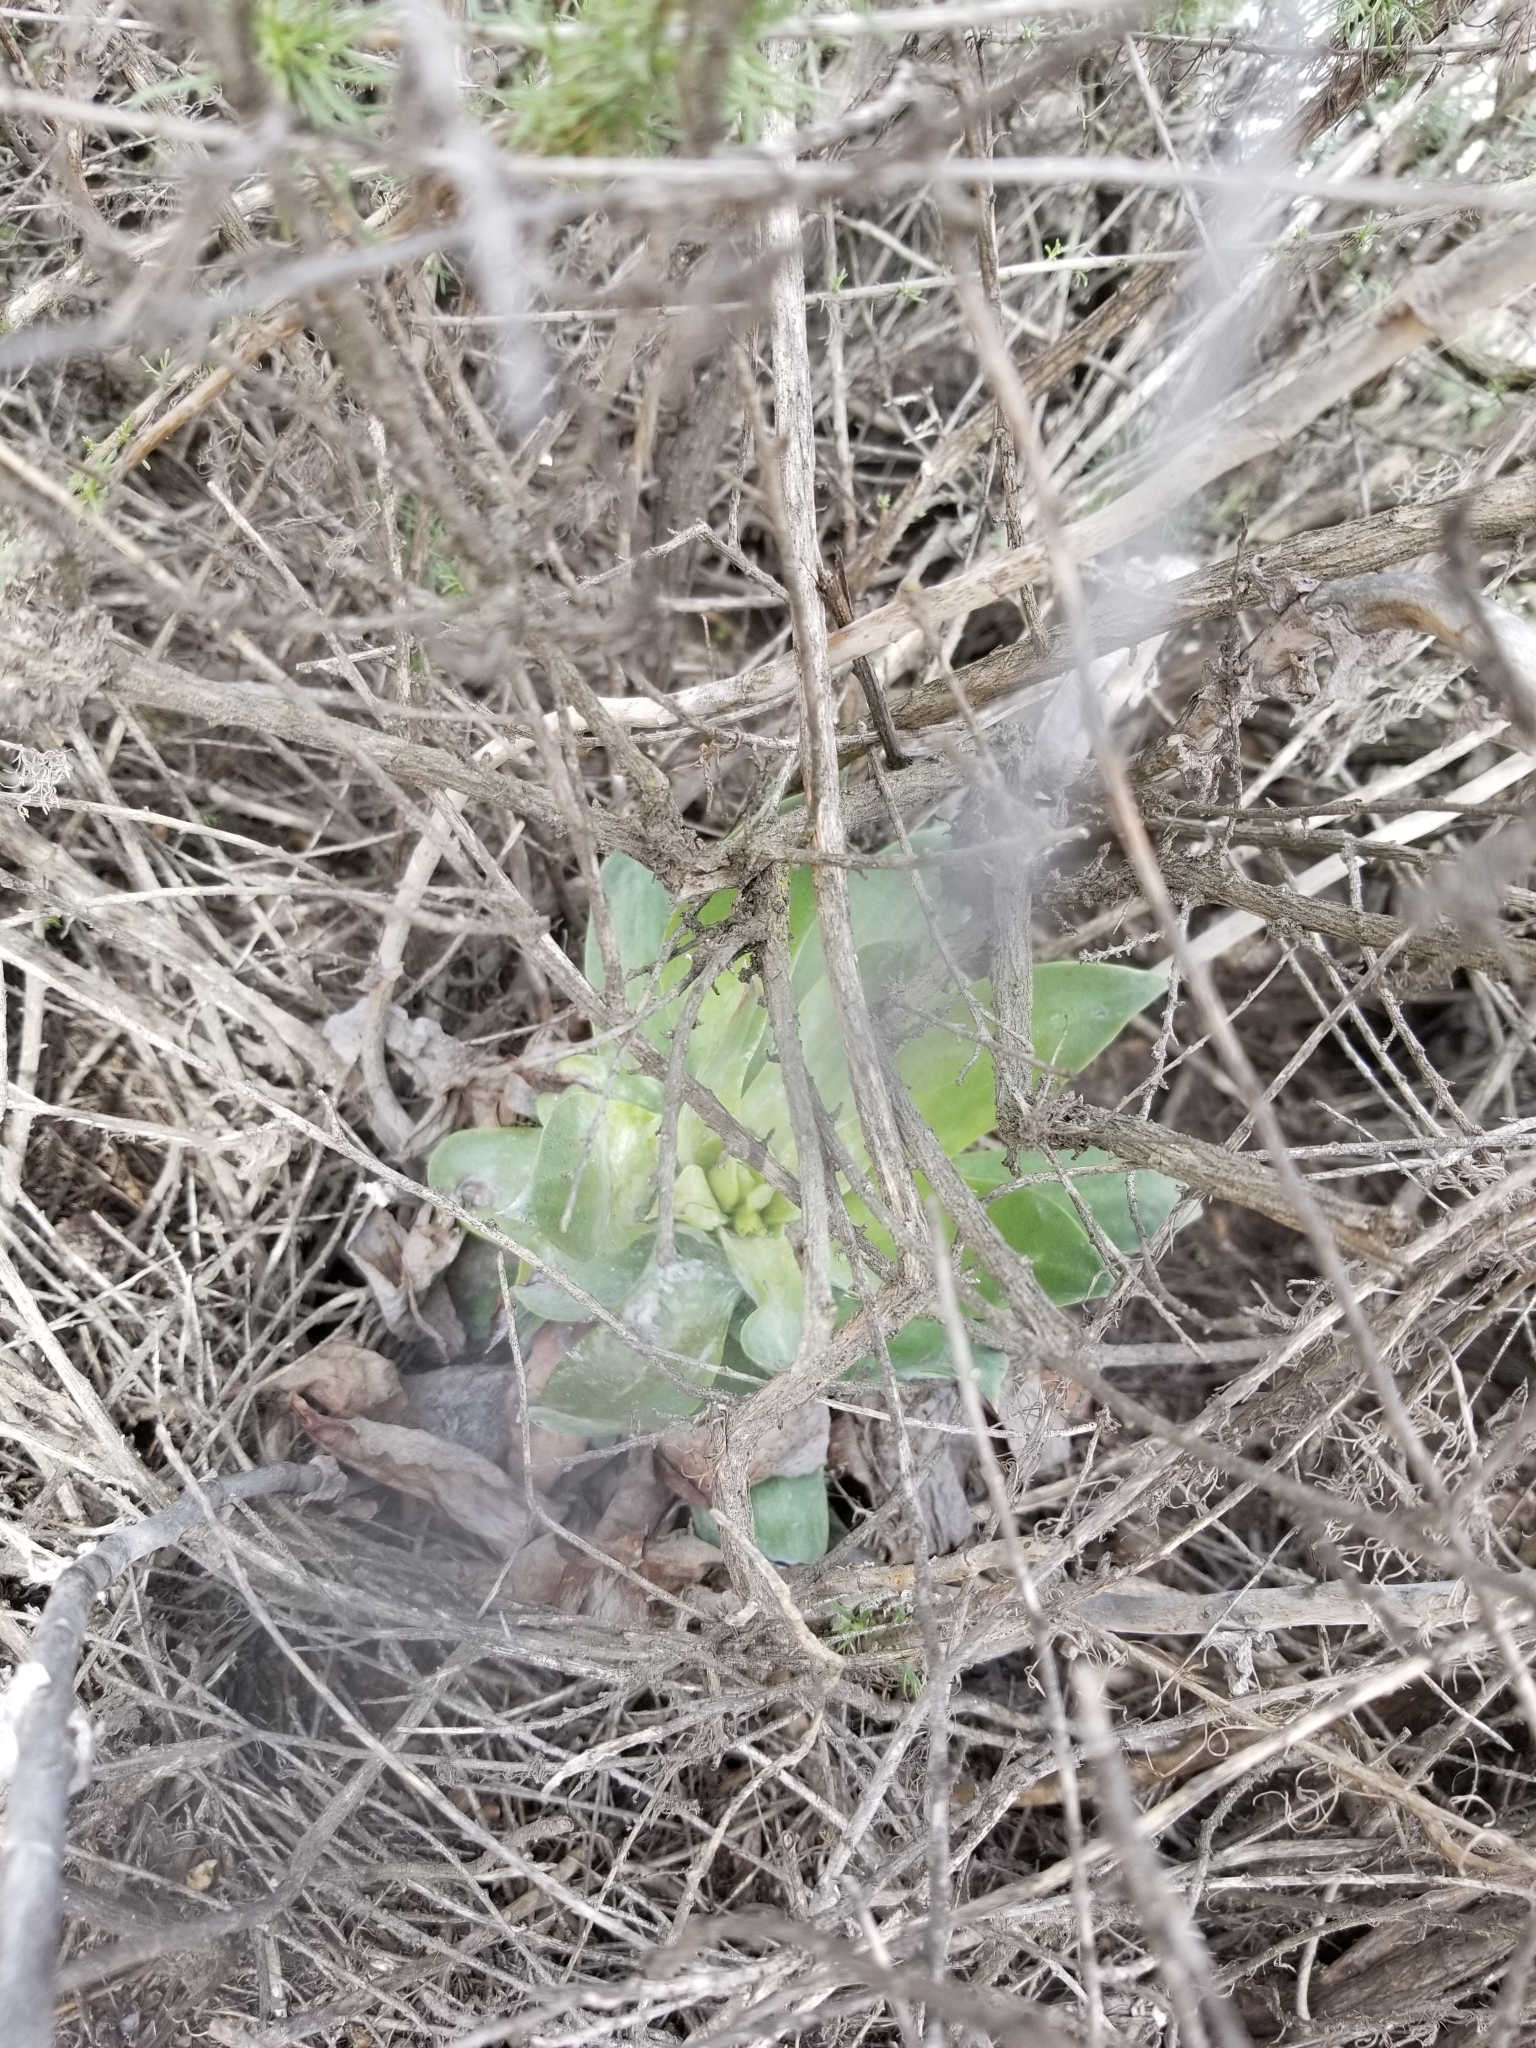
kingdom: Plantae
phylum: Tracheophyta
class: Magnoliopsida
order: Saxifragales
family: Crassulaceae
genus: Dudleya
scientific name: Dudleya pulverulenta
